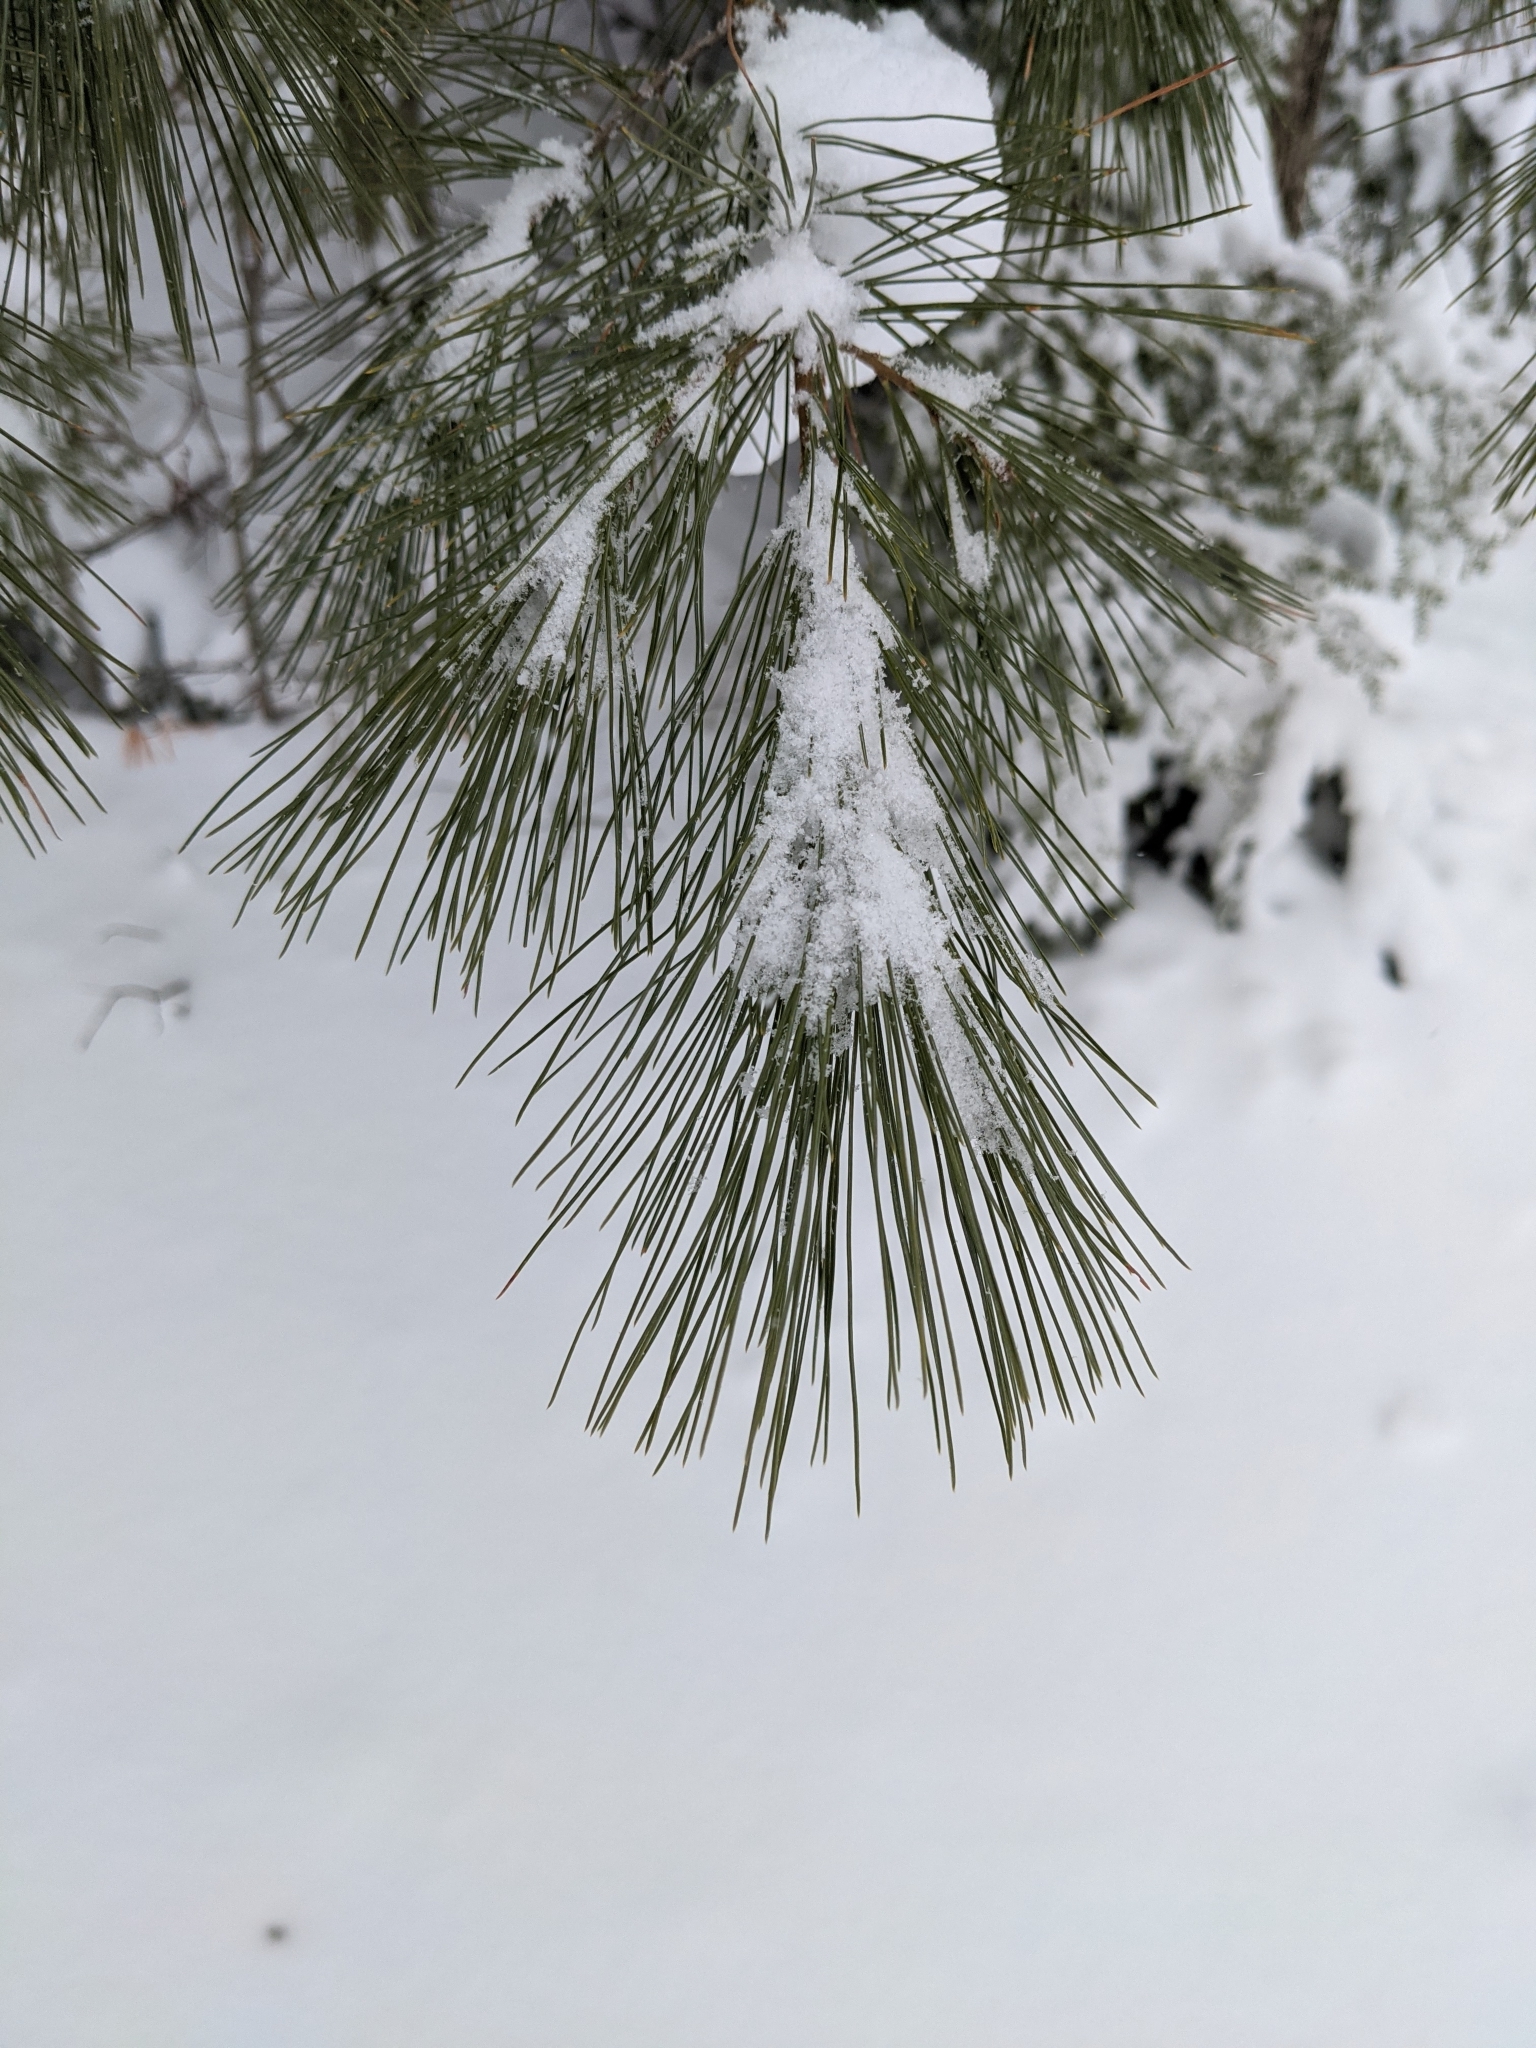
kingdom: Plantae
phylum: Tracheophyta
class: Pinopsida
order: Pinales
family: Pinaceae
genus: Pinus
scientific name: Pinus strobus
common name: Weymouth pine
